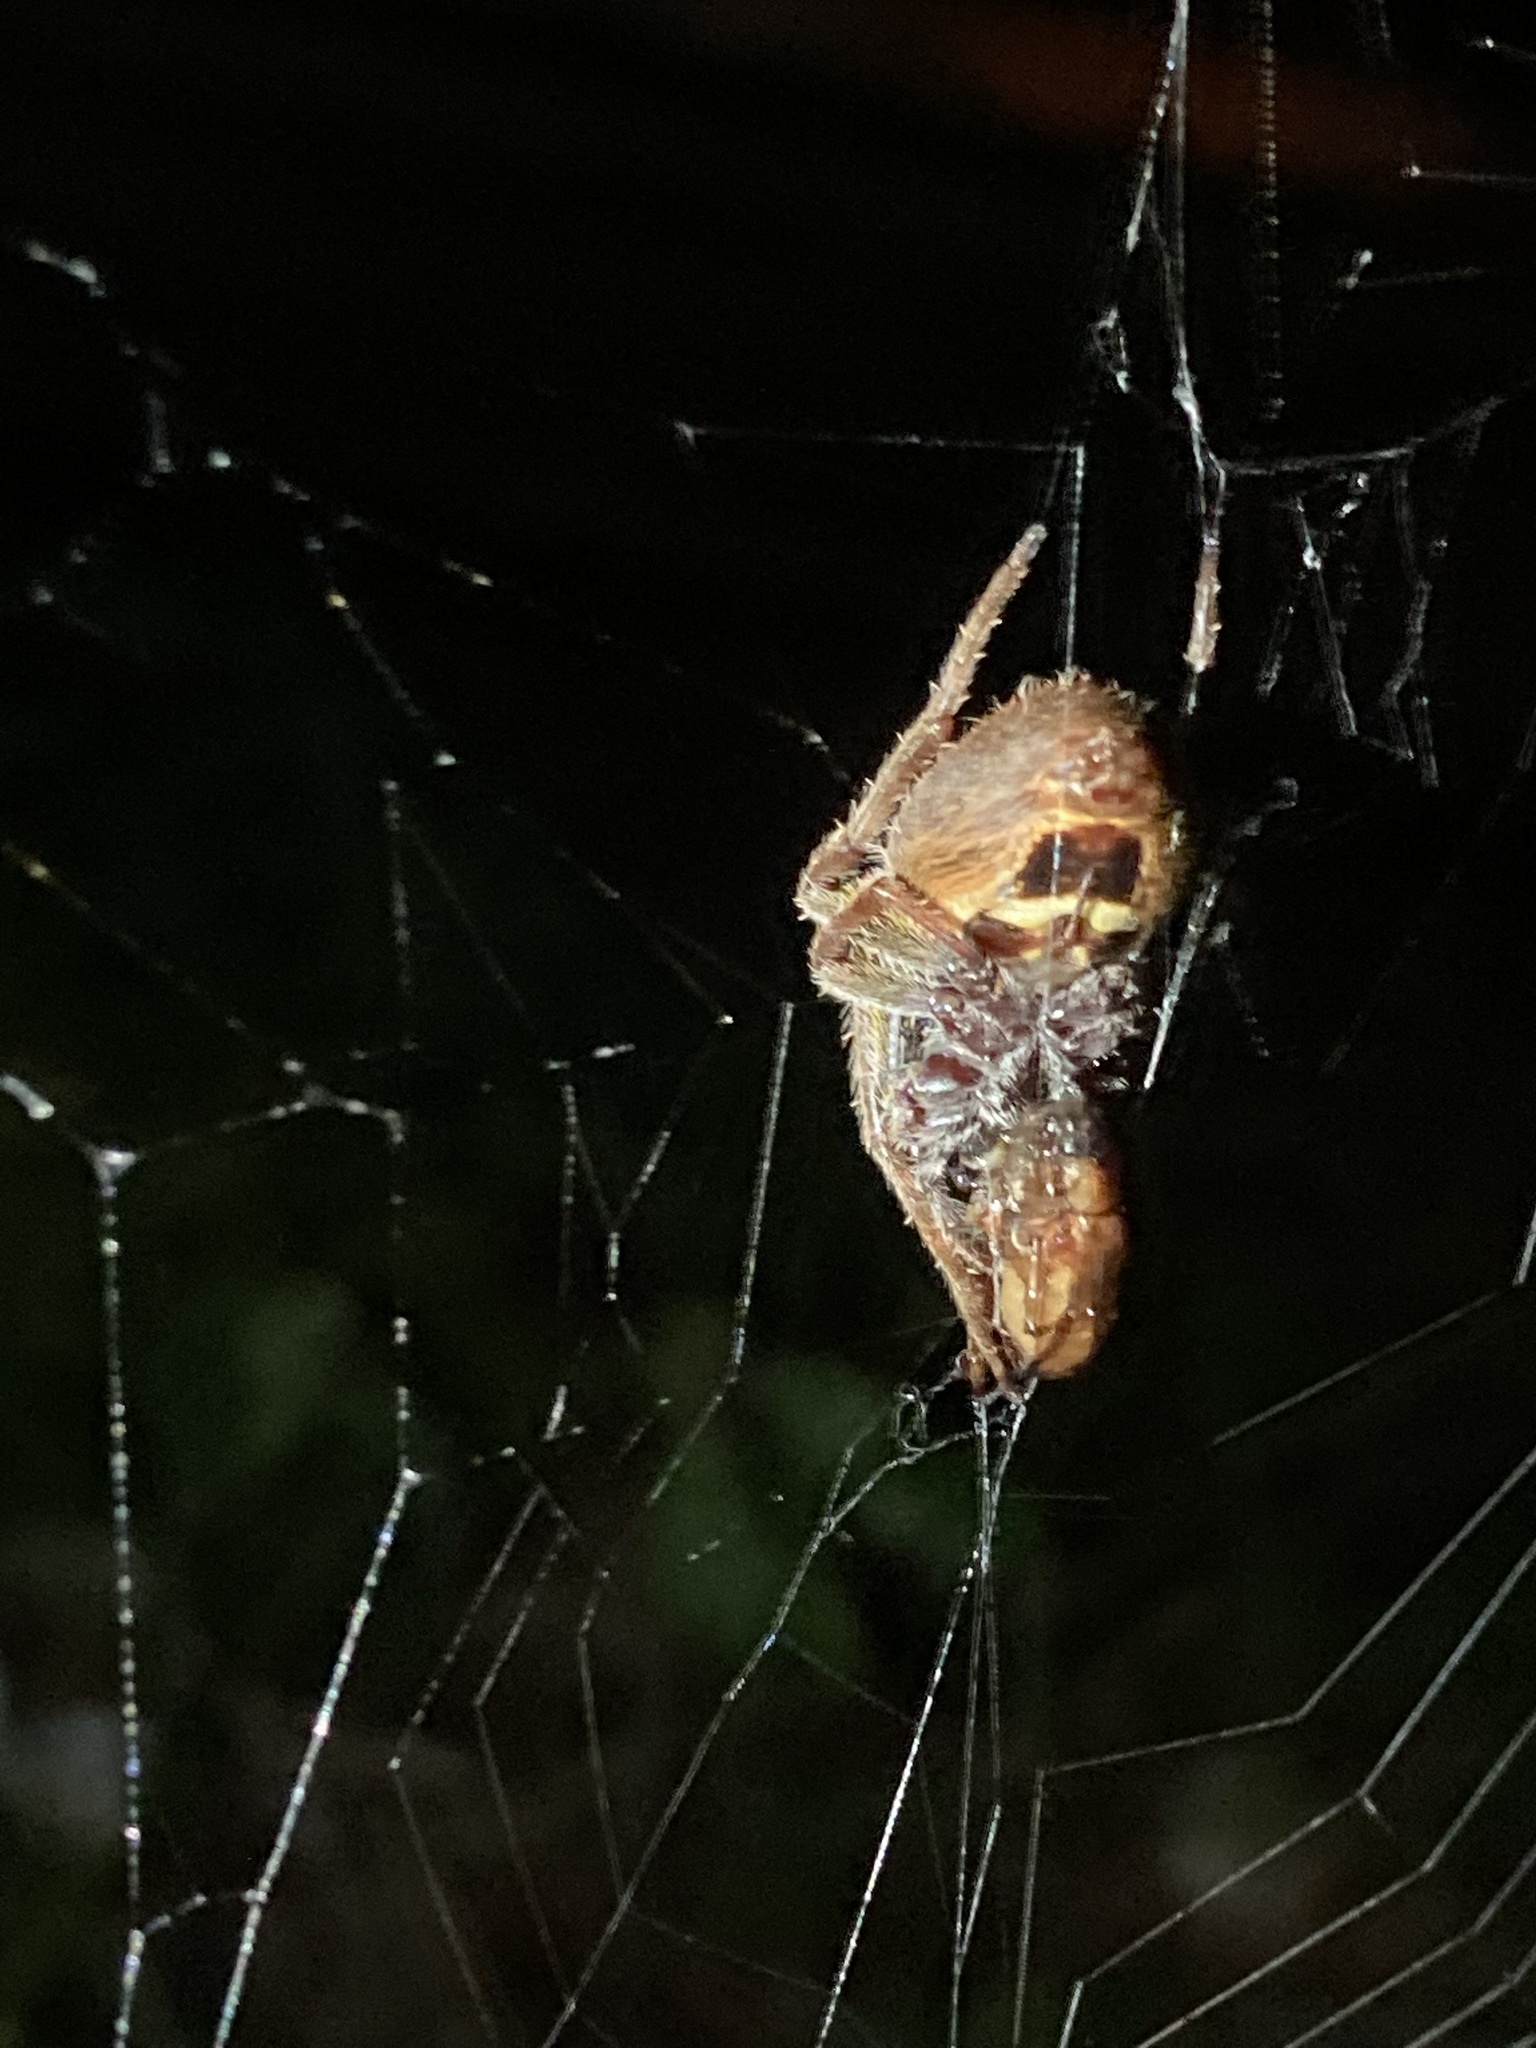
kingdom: Animalia
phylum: Arthropoda
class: Arachnida
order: Araneae
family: Araneidae
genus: Eriophora
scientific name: Eriophora ravilla
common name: Orb weavers
